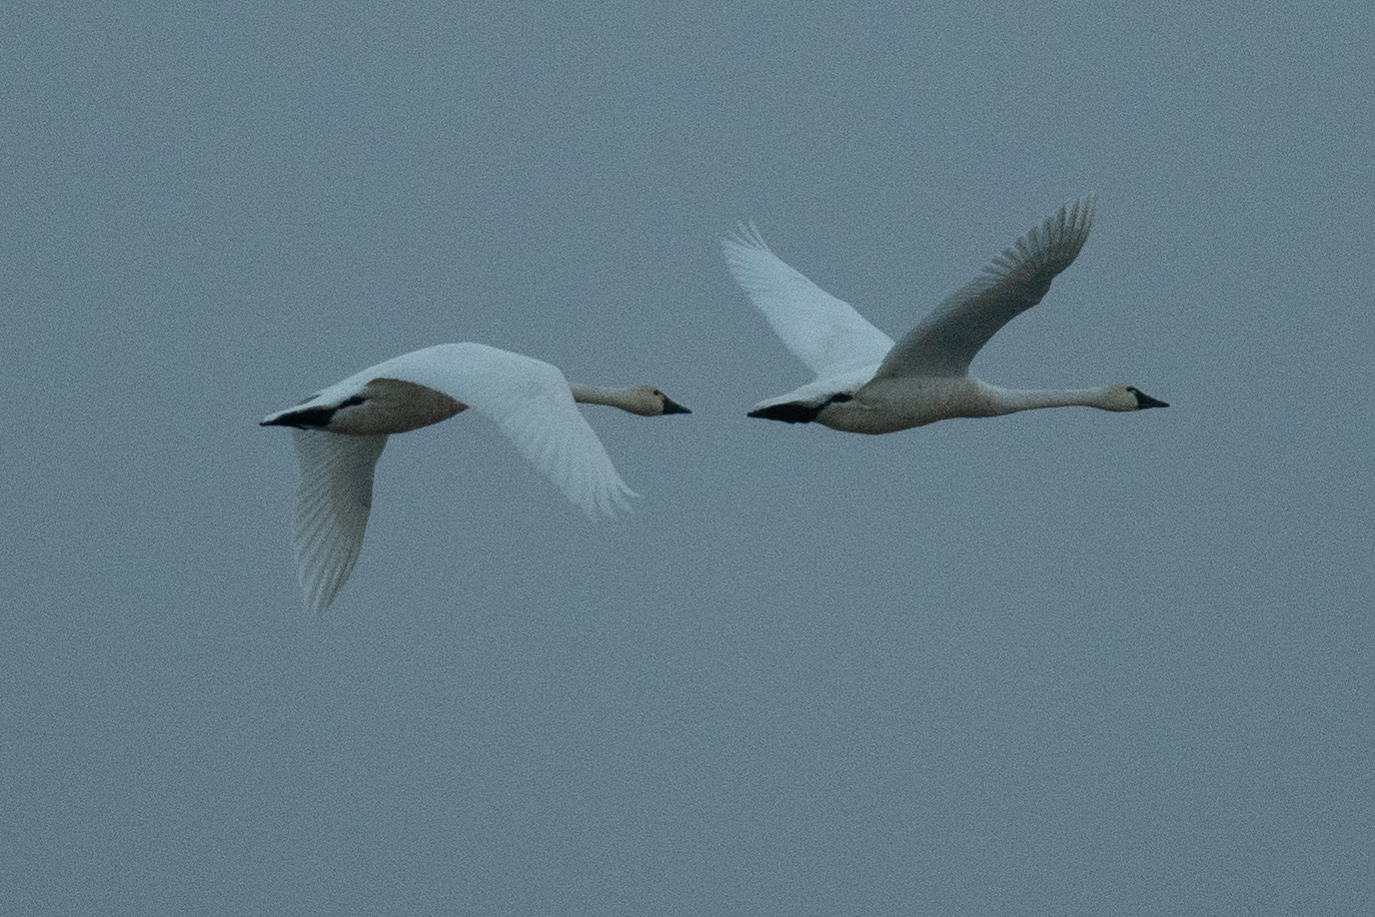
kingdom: Animalia
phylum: Chordata
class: Aves
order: Anseriformes
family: Anatidae
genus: Cygnus
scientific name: Cygnus columbianus
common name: Tundra swan
